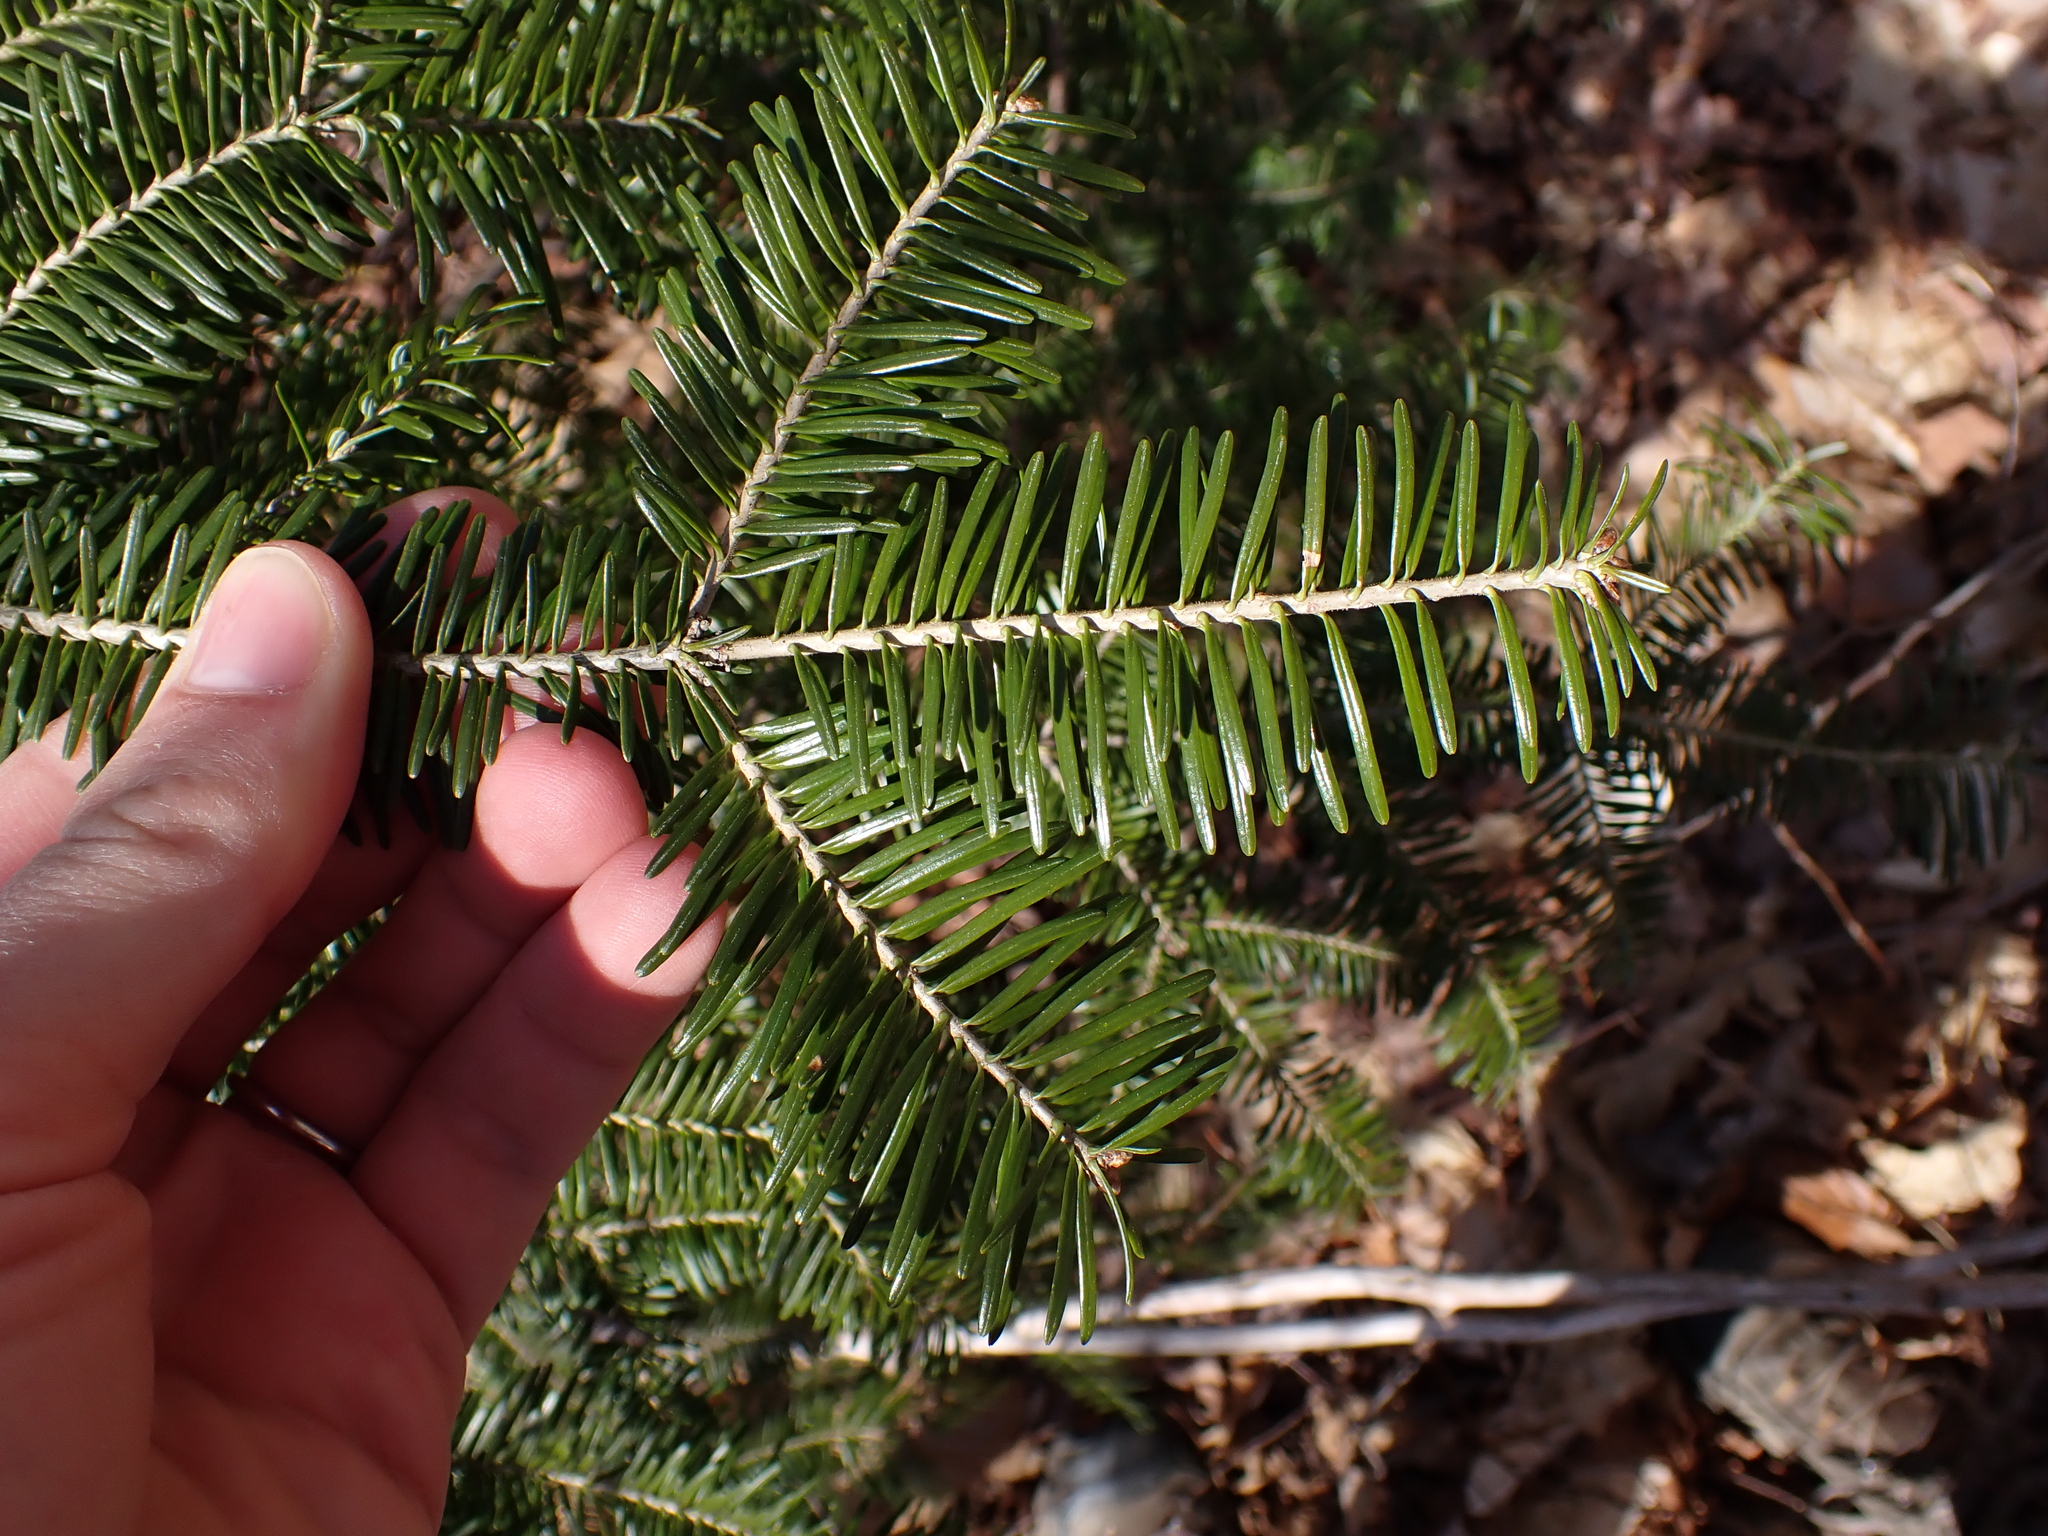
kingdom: Plantae
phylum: Tracheophyta
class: Pinopsida
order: Pinales
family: Pinaceae
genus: Abies
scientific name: Abies balsamea
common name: Balsam fir
